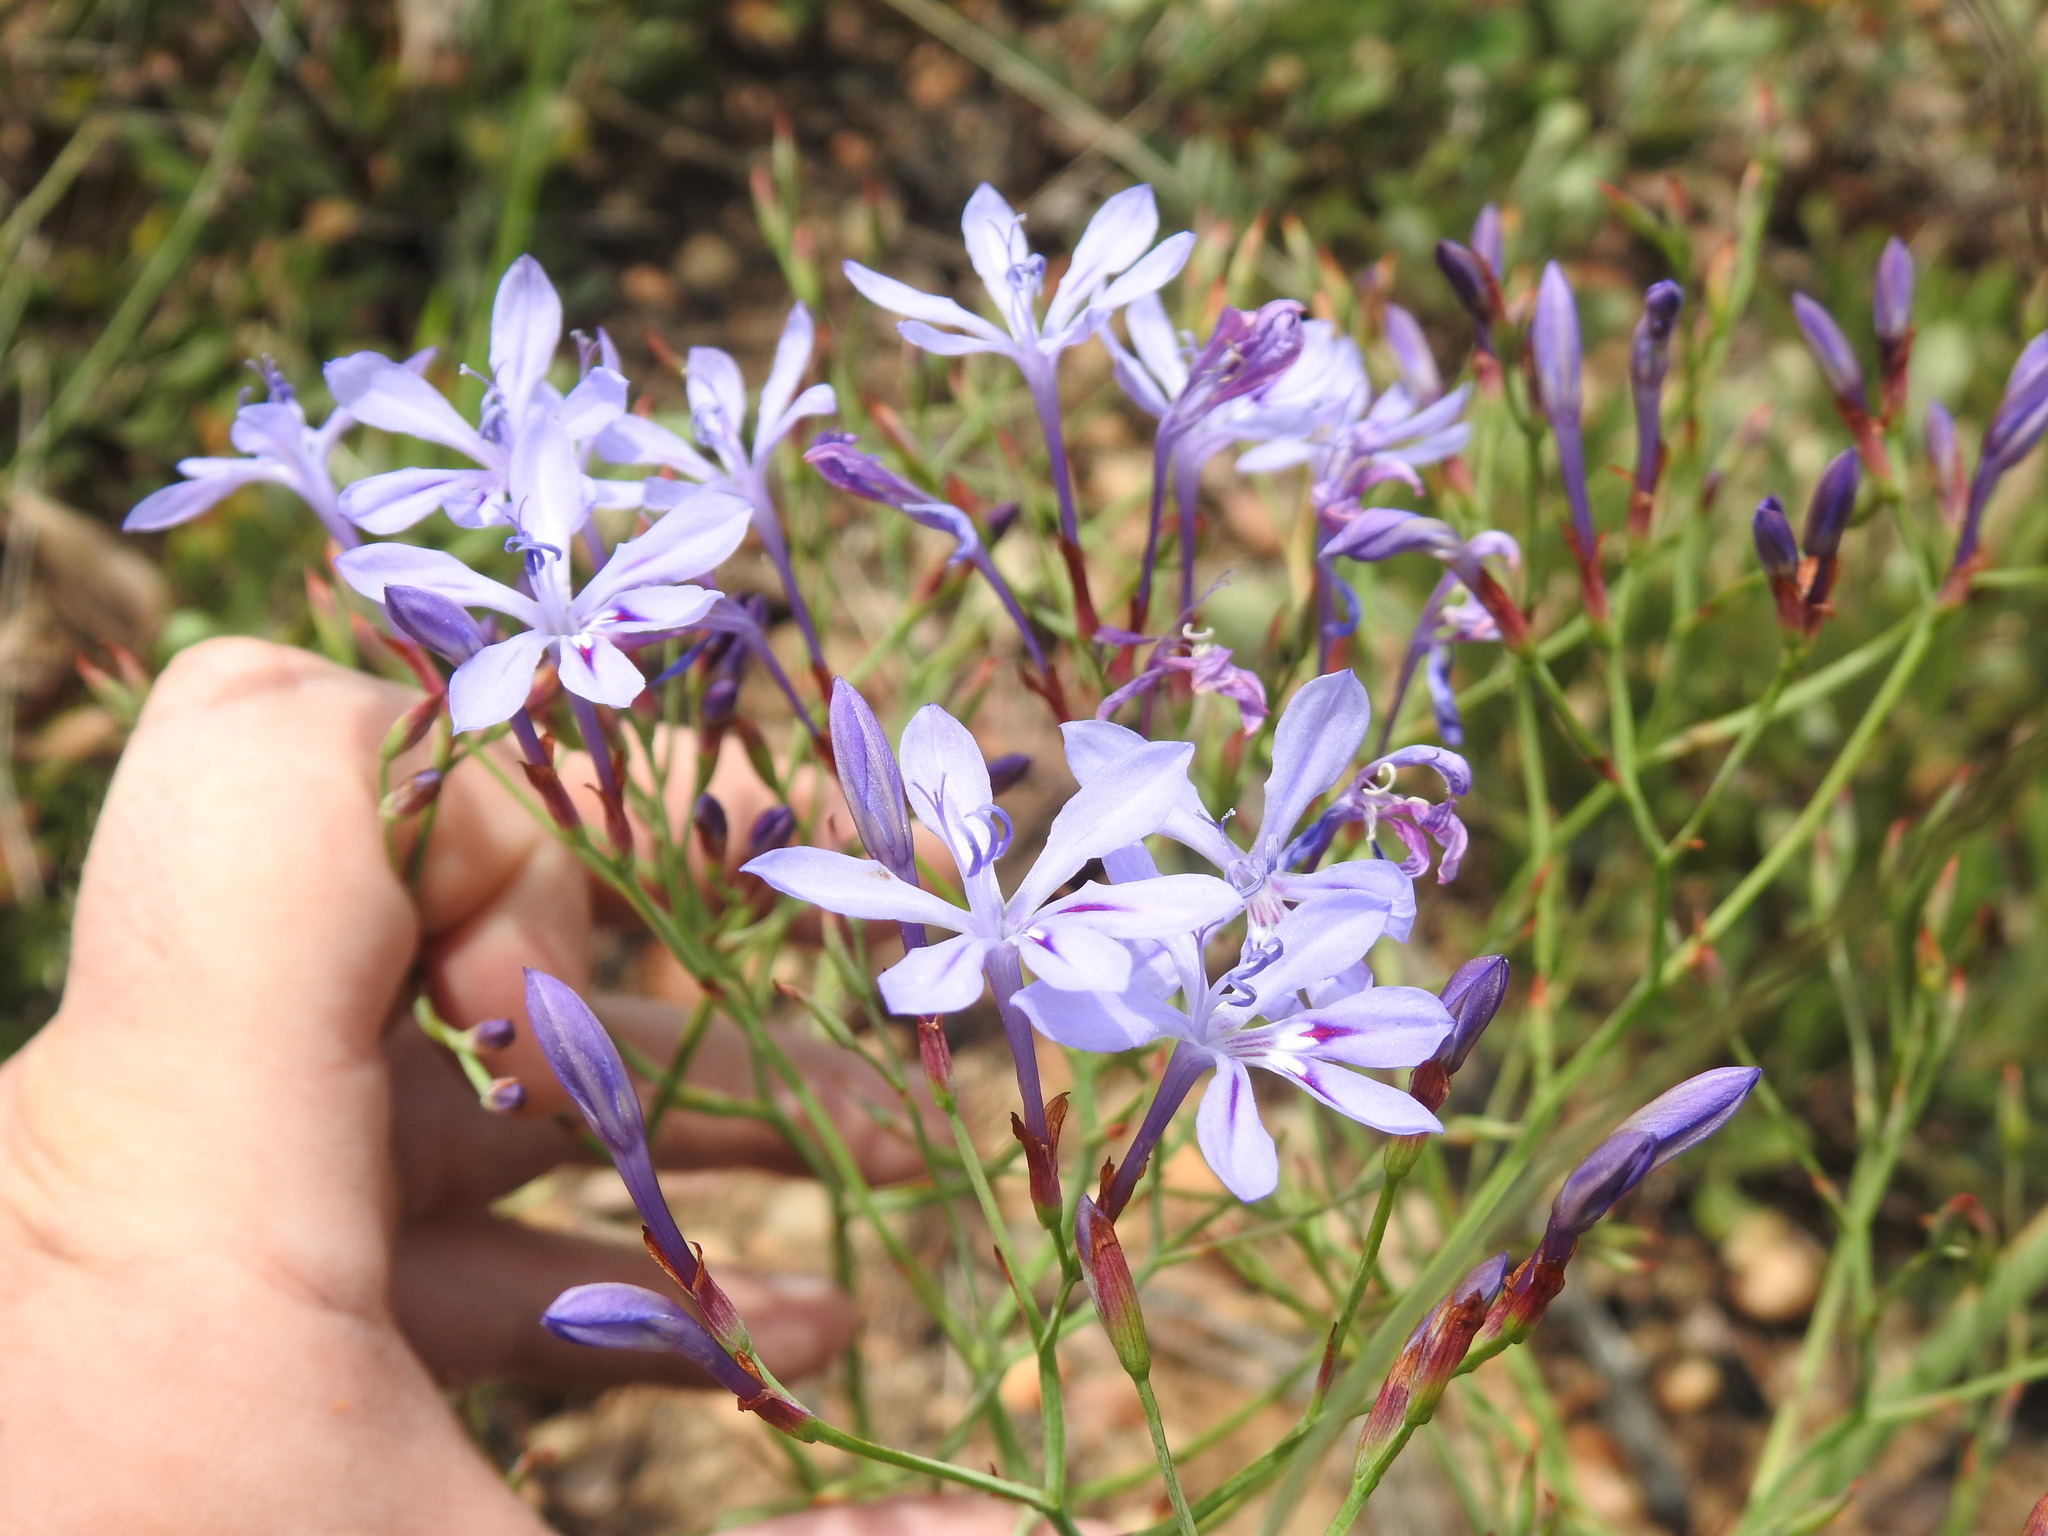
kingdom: Plantae
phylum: Tracheophyta
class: Liliopsida
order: Asparagales
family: Iridaceae
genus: Afrosolen
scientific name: Afrosolen sandersonii
